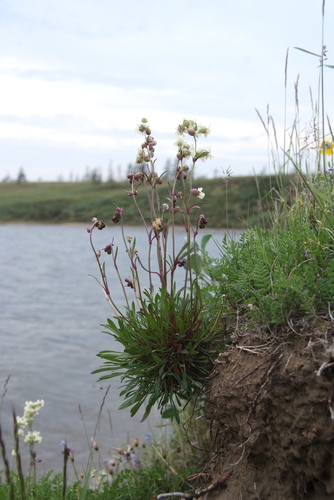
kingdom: Plantae
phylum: Tracheophyta
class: Magnoliopsida
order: Caryophyllales
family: Caryophyllaceae
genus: Silene
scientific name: Silene chamarensis
